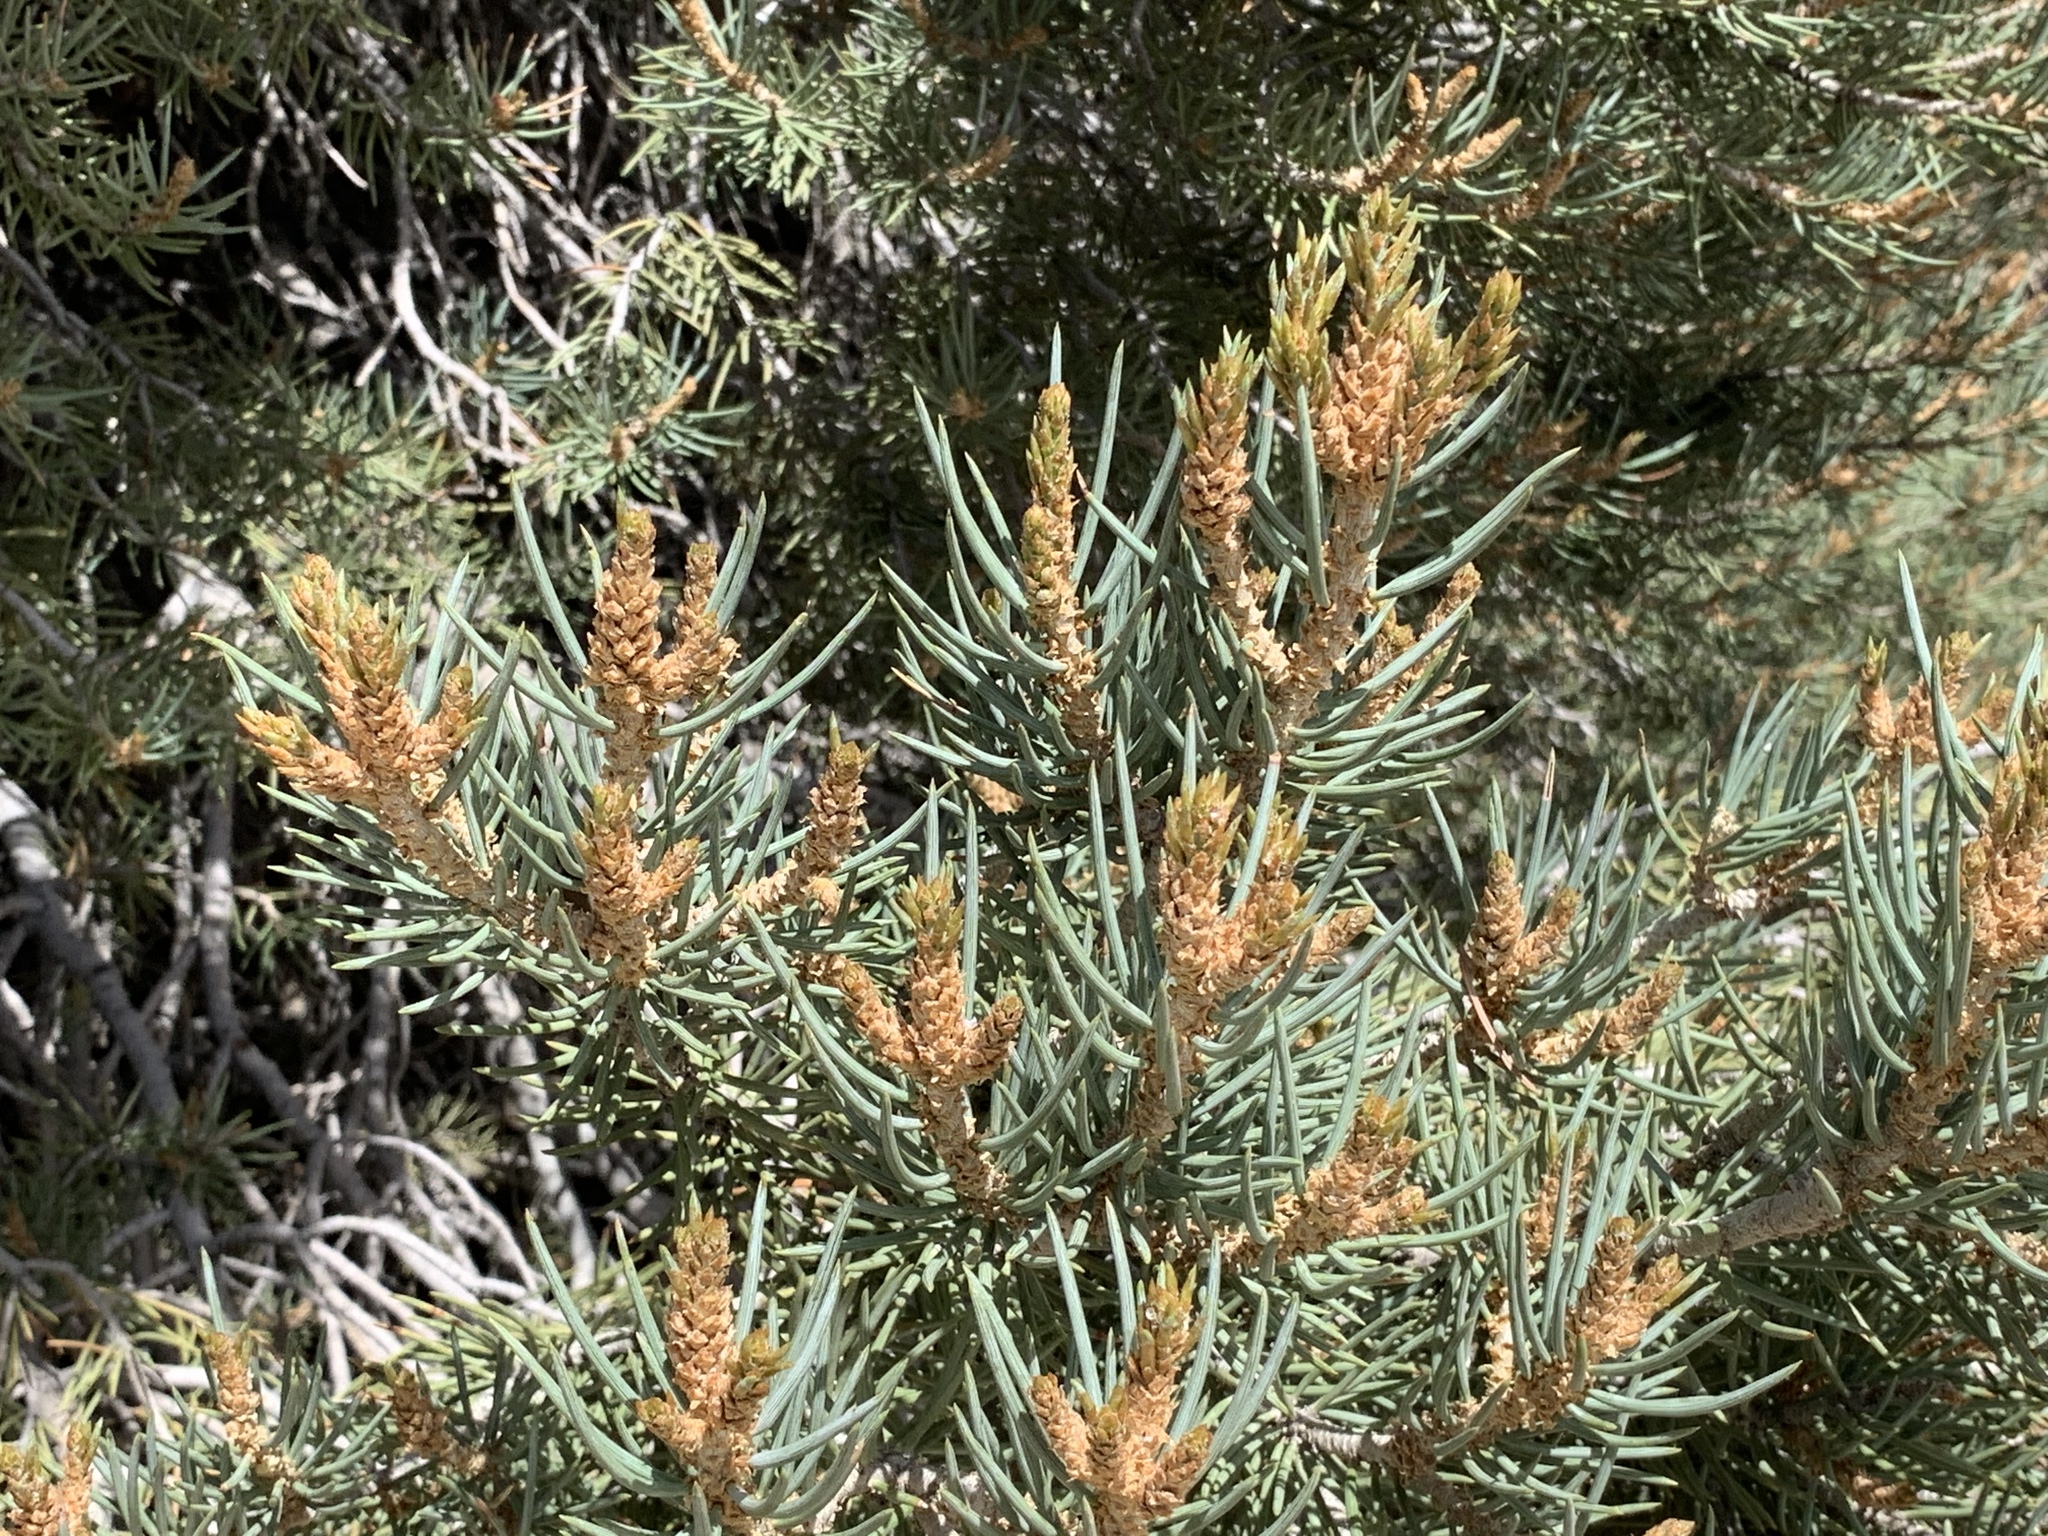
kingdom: Plantae
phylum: Tracheophyta
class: Pinopsida
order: Pinales
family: Pinaceae
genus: Pinus
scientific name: Pinus monophylla
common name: One-leaved nut pine
